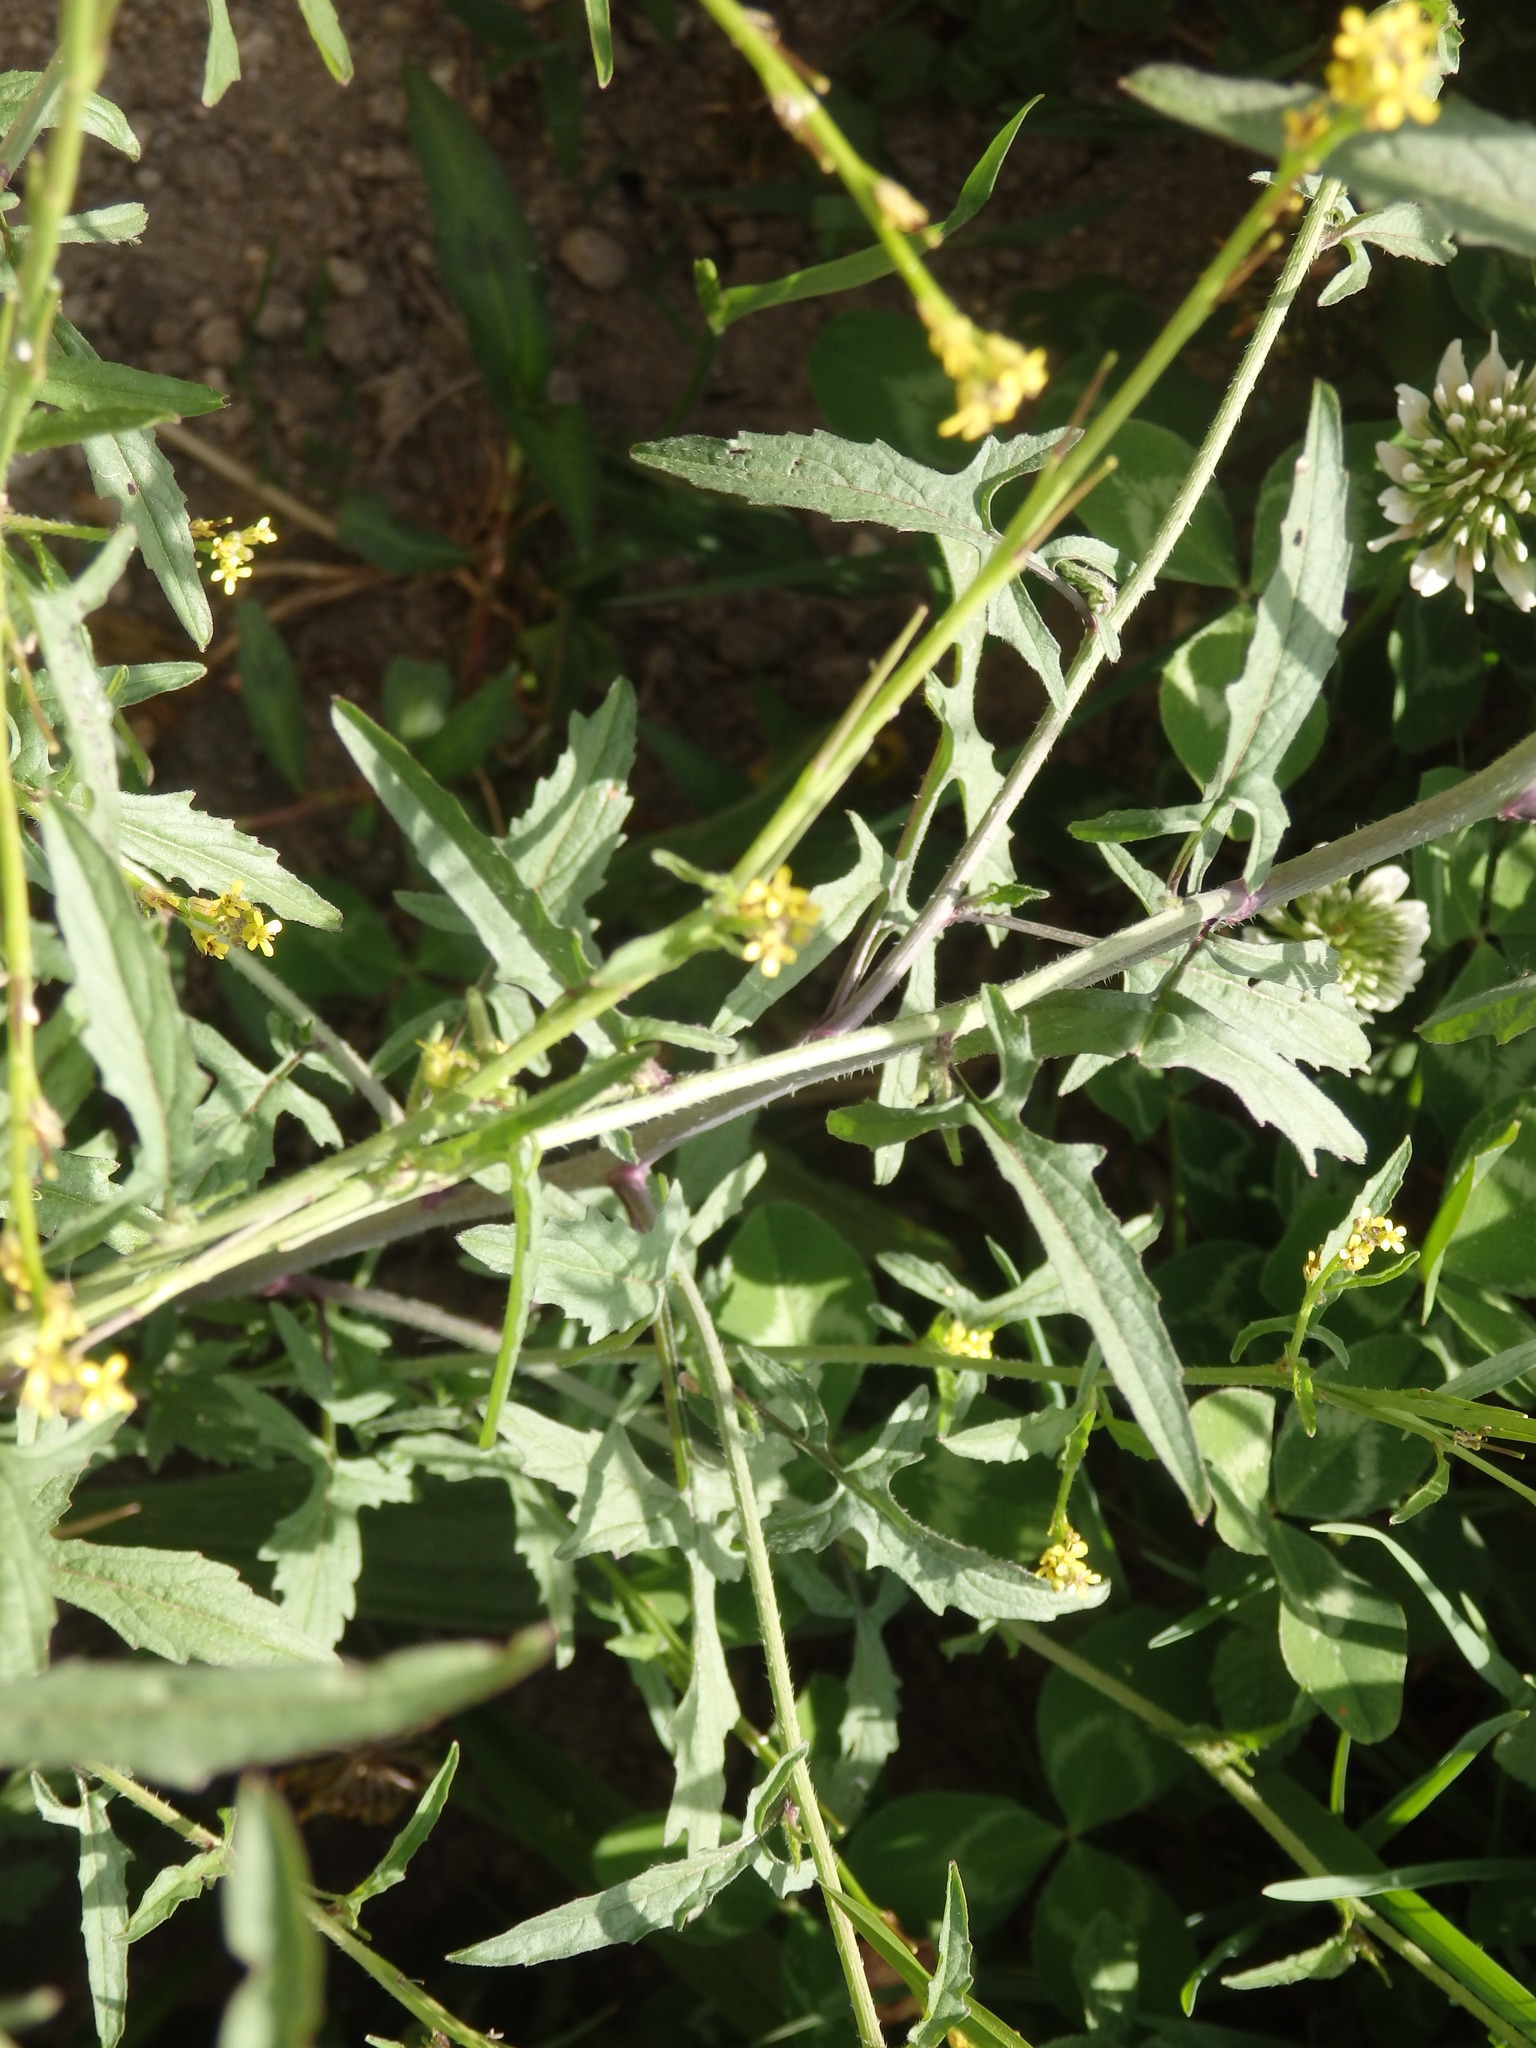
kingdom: Plantae
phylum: Tracheophyta
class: Magnoliopsida
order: Brassicales
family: Brassicaceae
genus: Sisymbrium
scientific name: Sisymbrium orientale
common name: Eastern rocket
